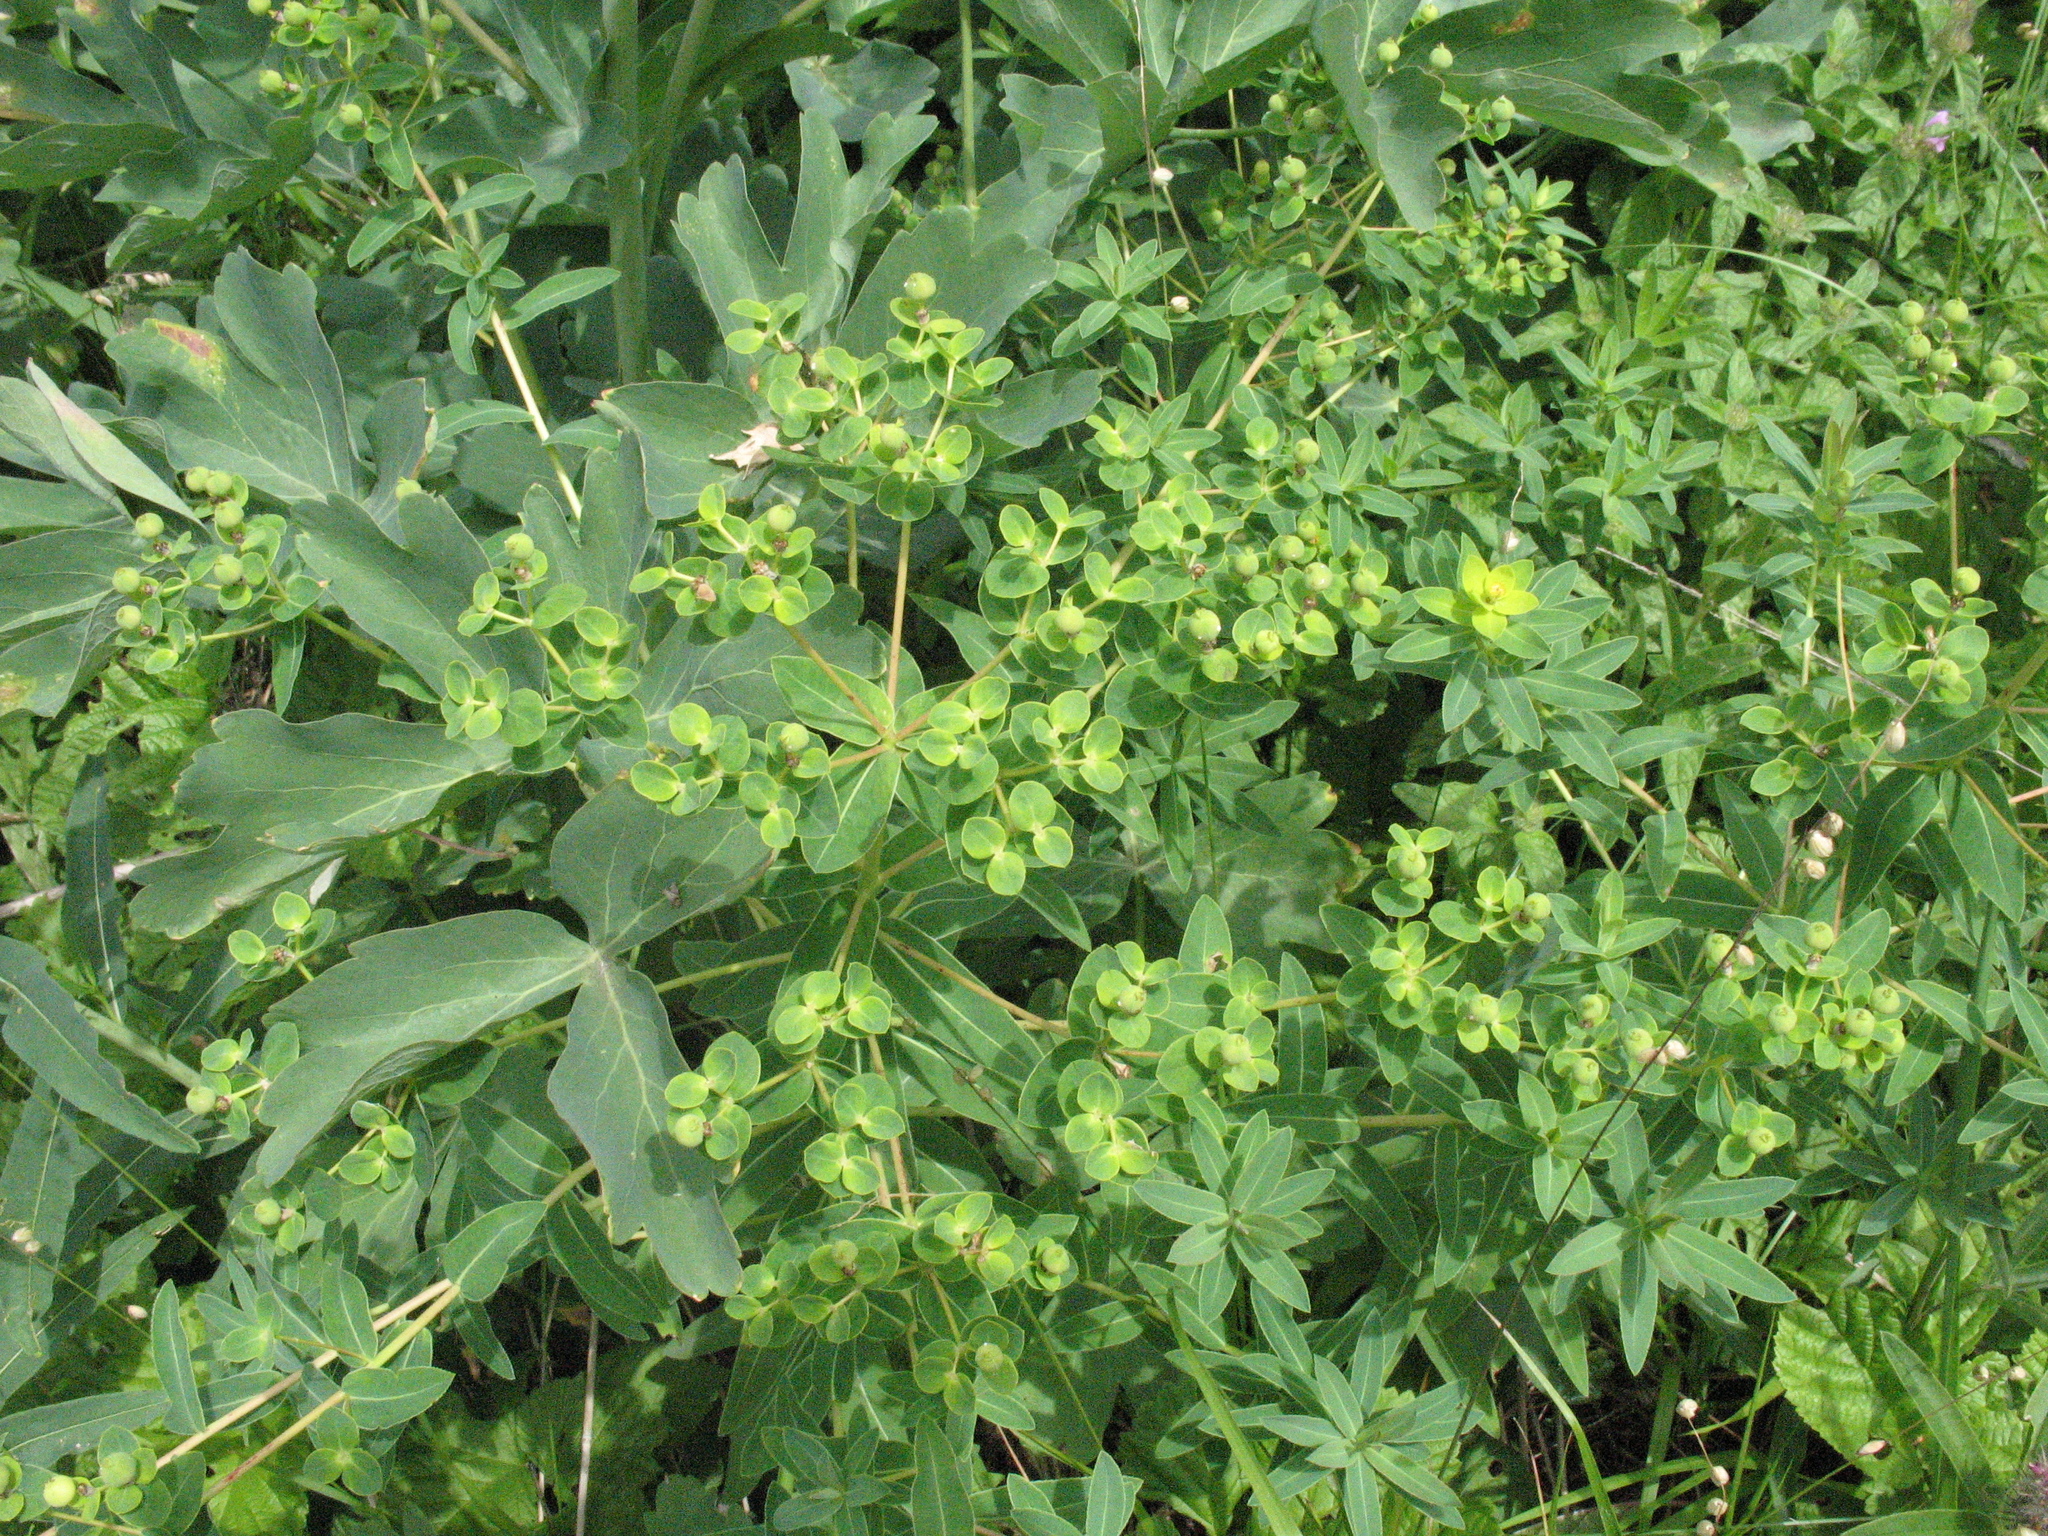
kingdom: Plantae
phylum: Tracheophyta
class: Magnoliopsida
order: Malpighiales
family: Euphorbiaceae
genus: Euphorbia
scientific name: Euphorbia semivillosa
